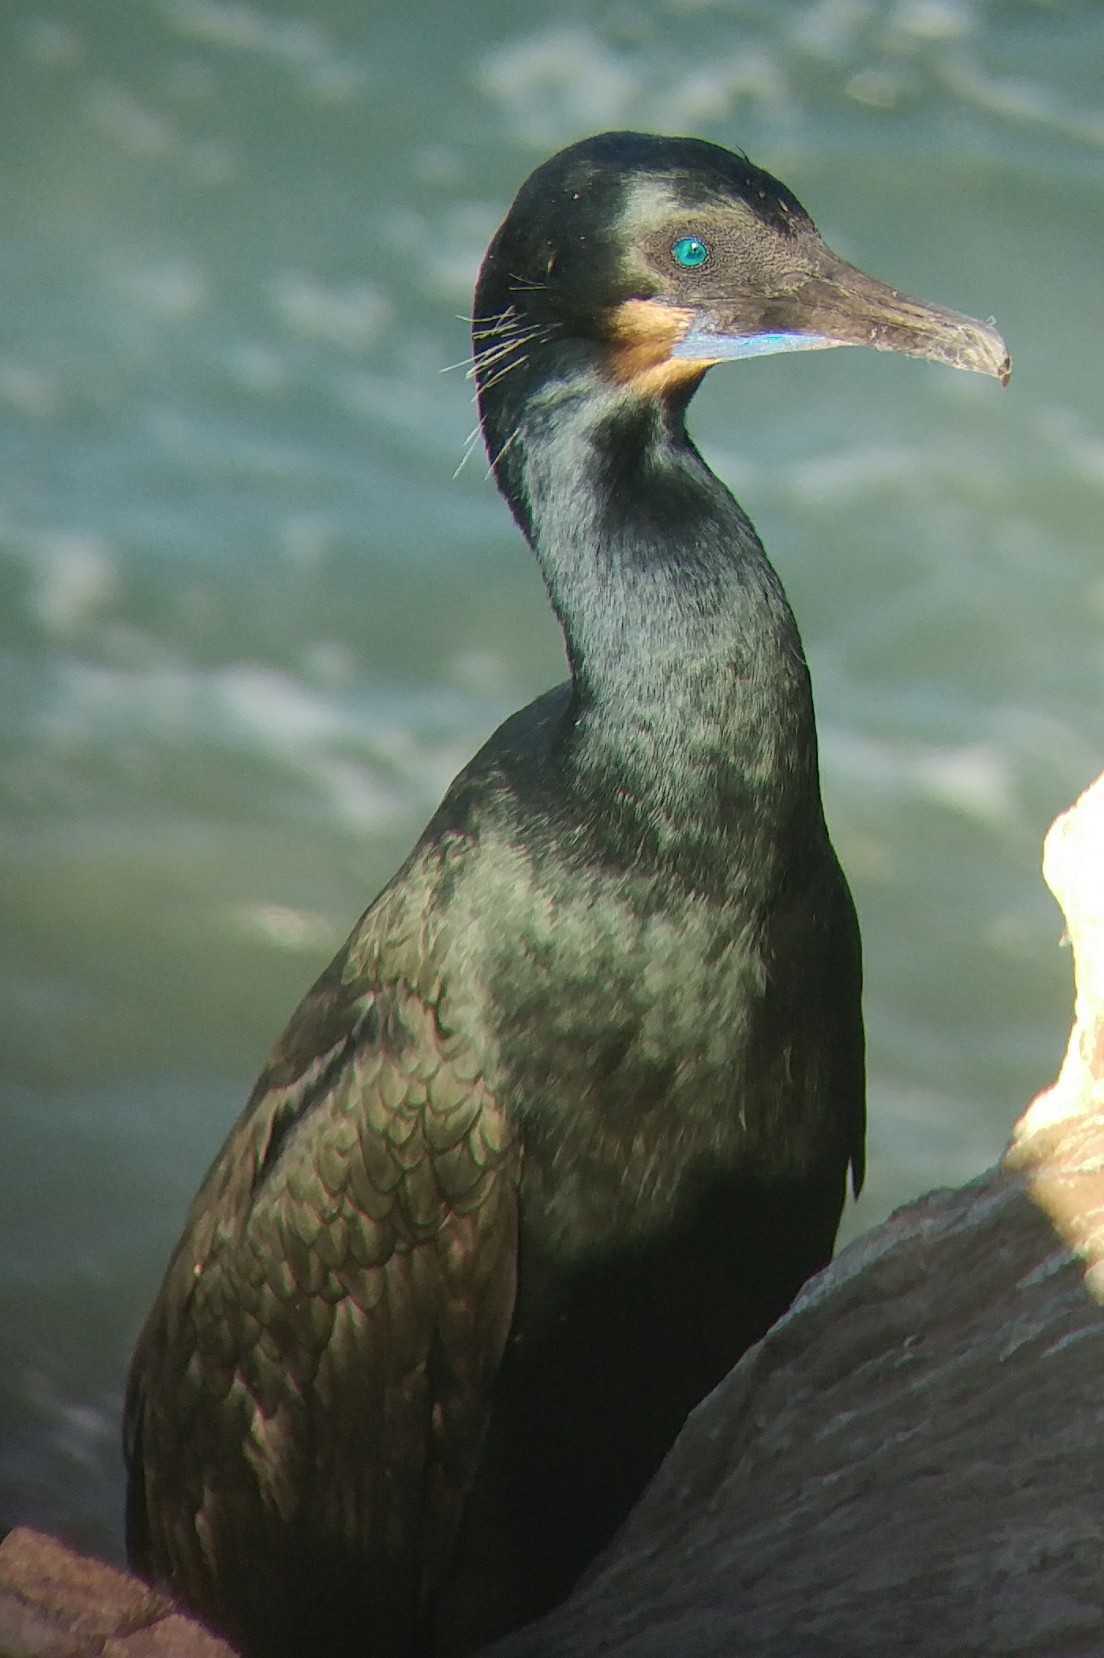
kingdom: Animalia
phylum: Chordata
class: Aves
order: Suliformes
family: Phalacrocoracidae
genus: Urile
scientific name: Urile penicillatus
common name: Brandt's cormorant
